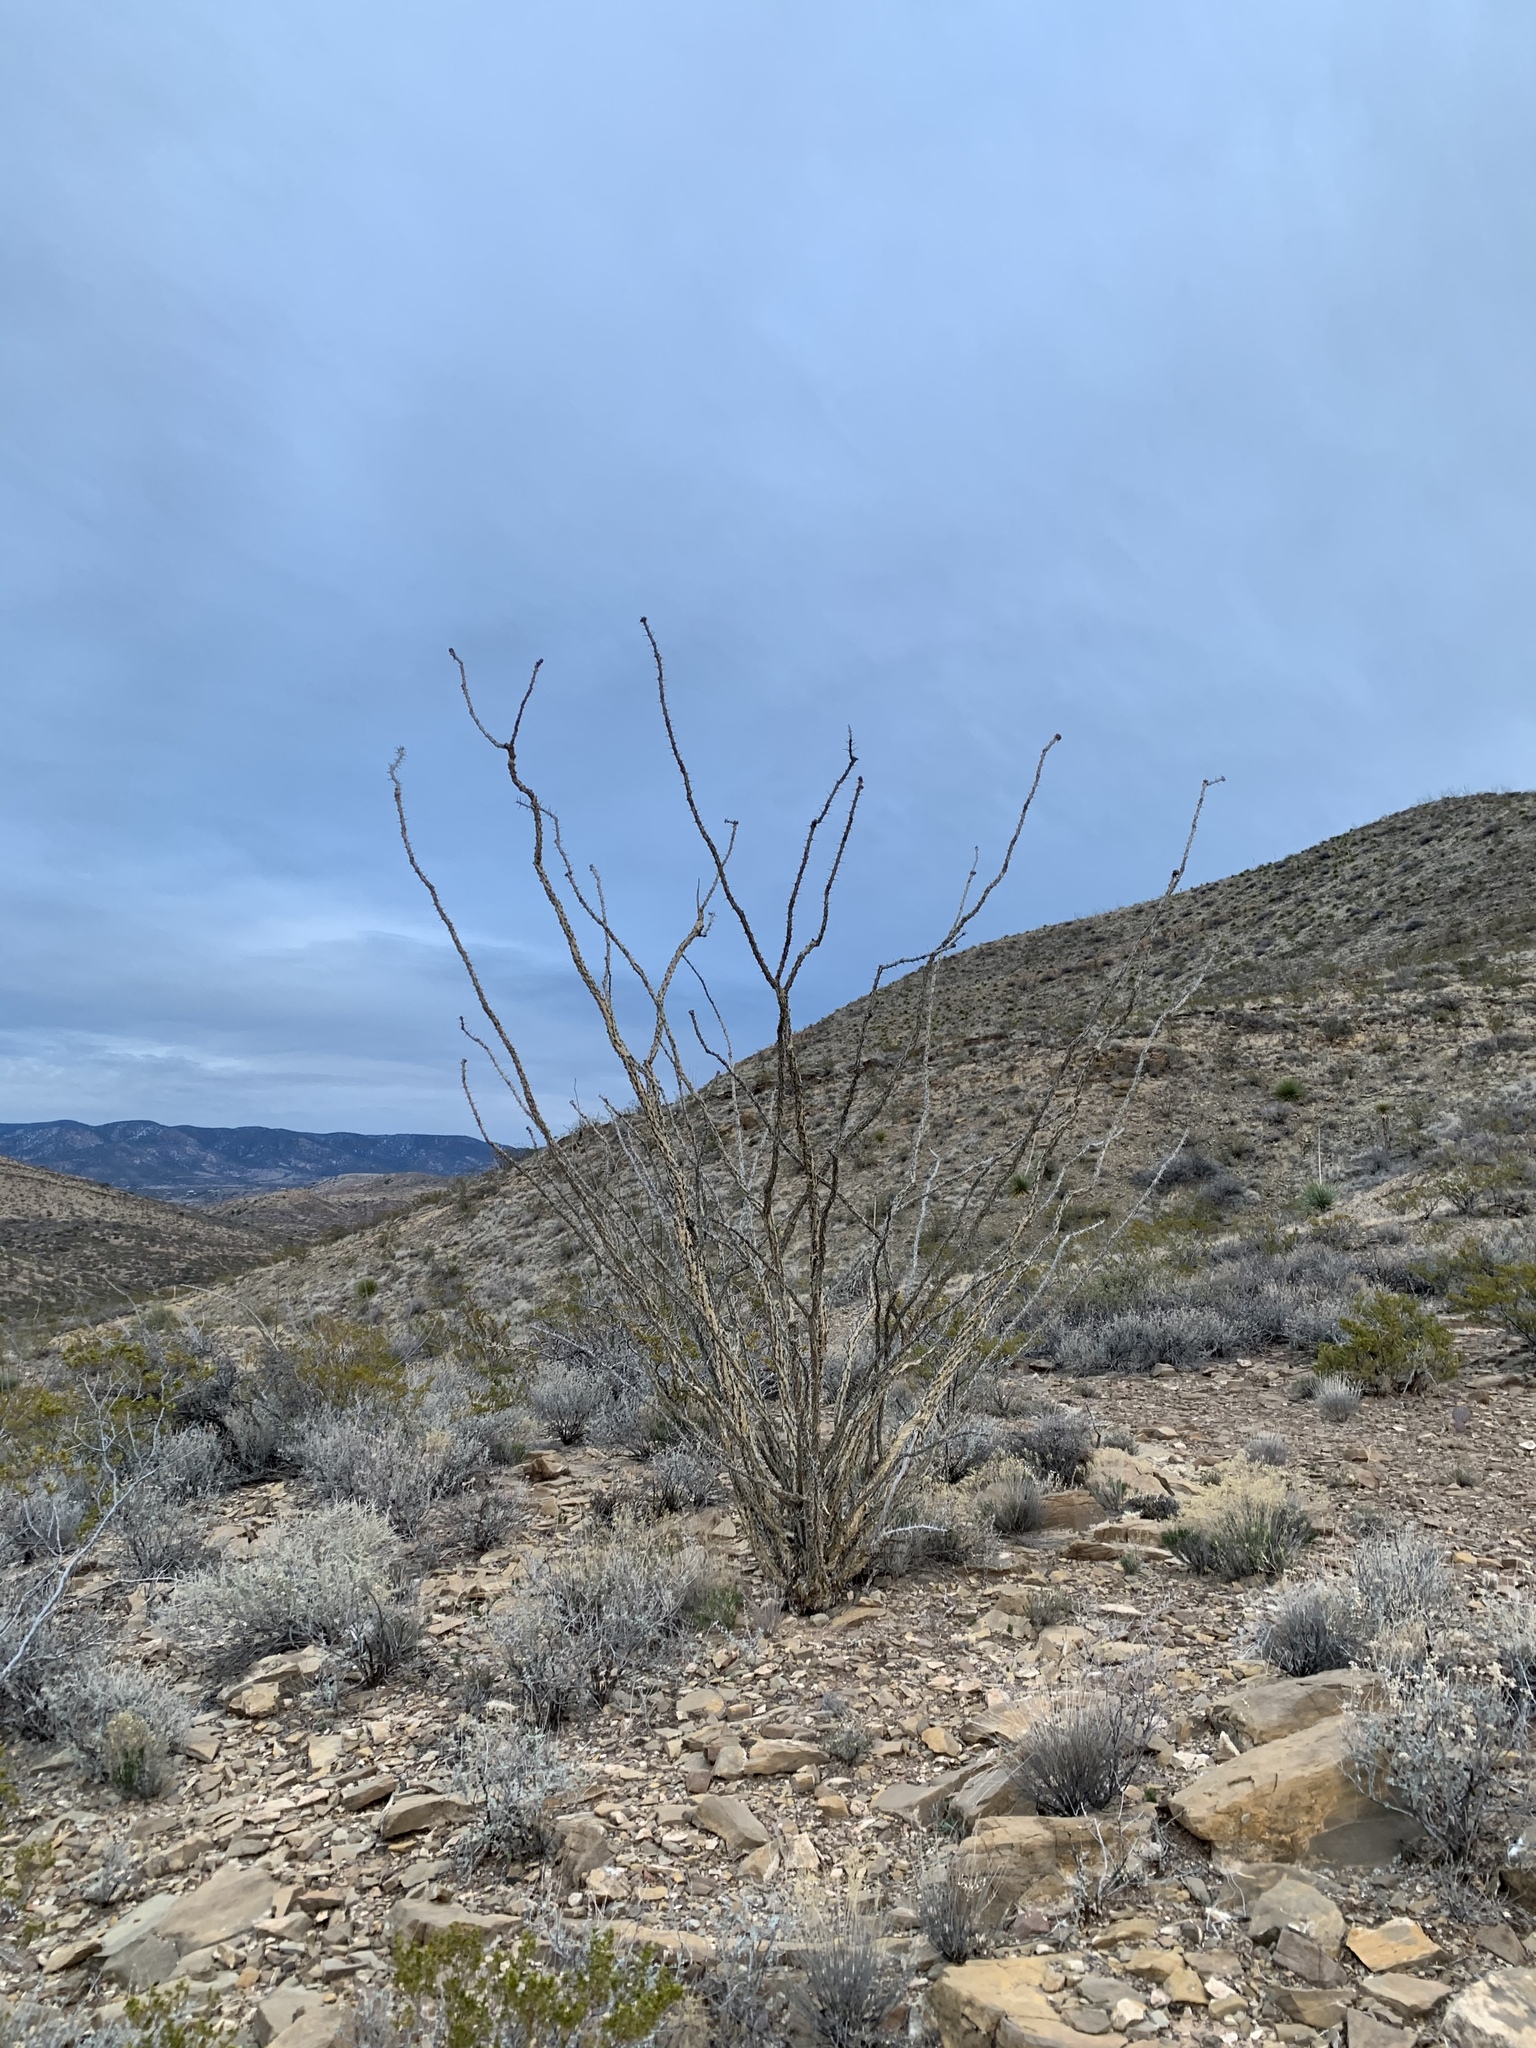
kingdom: Plantae
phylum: Tracheophyta
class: Magnoliopsida
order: Ericales
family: Fouquieriaceae
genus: Fouquieria
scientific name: Fouquieria splendens
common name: Vine-cactus
